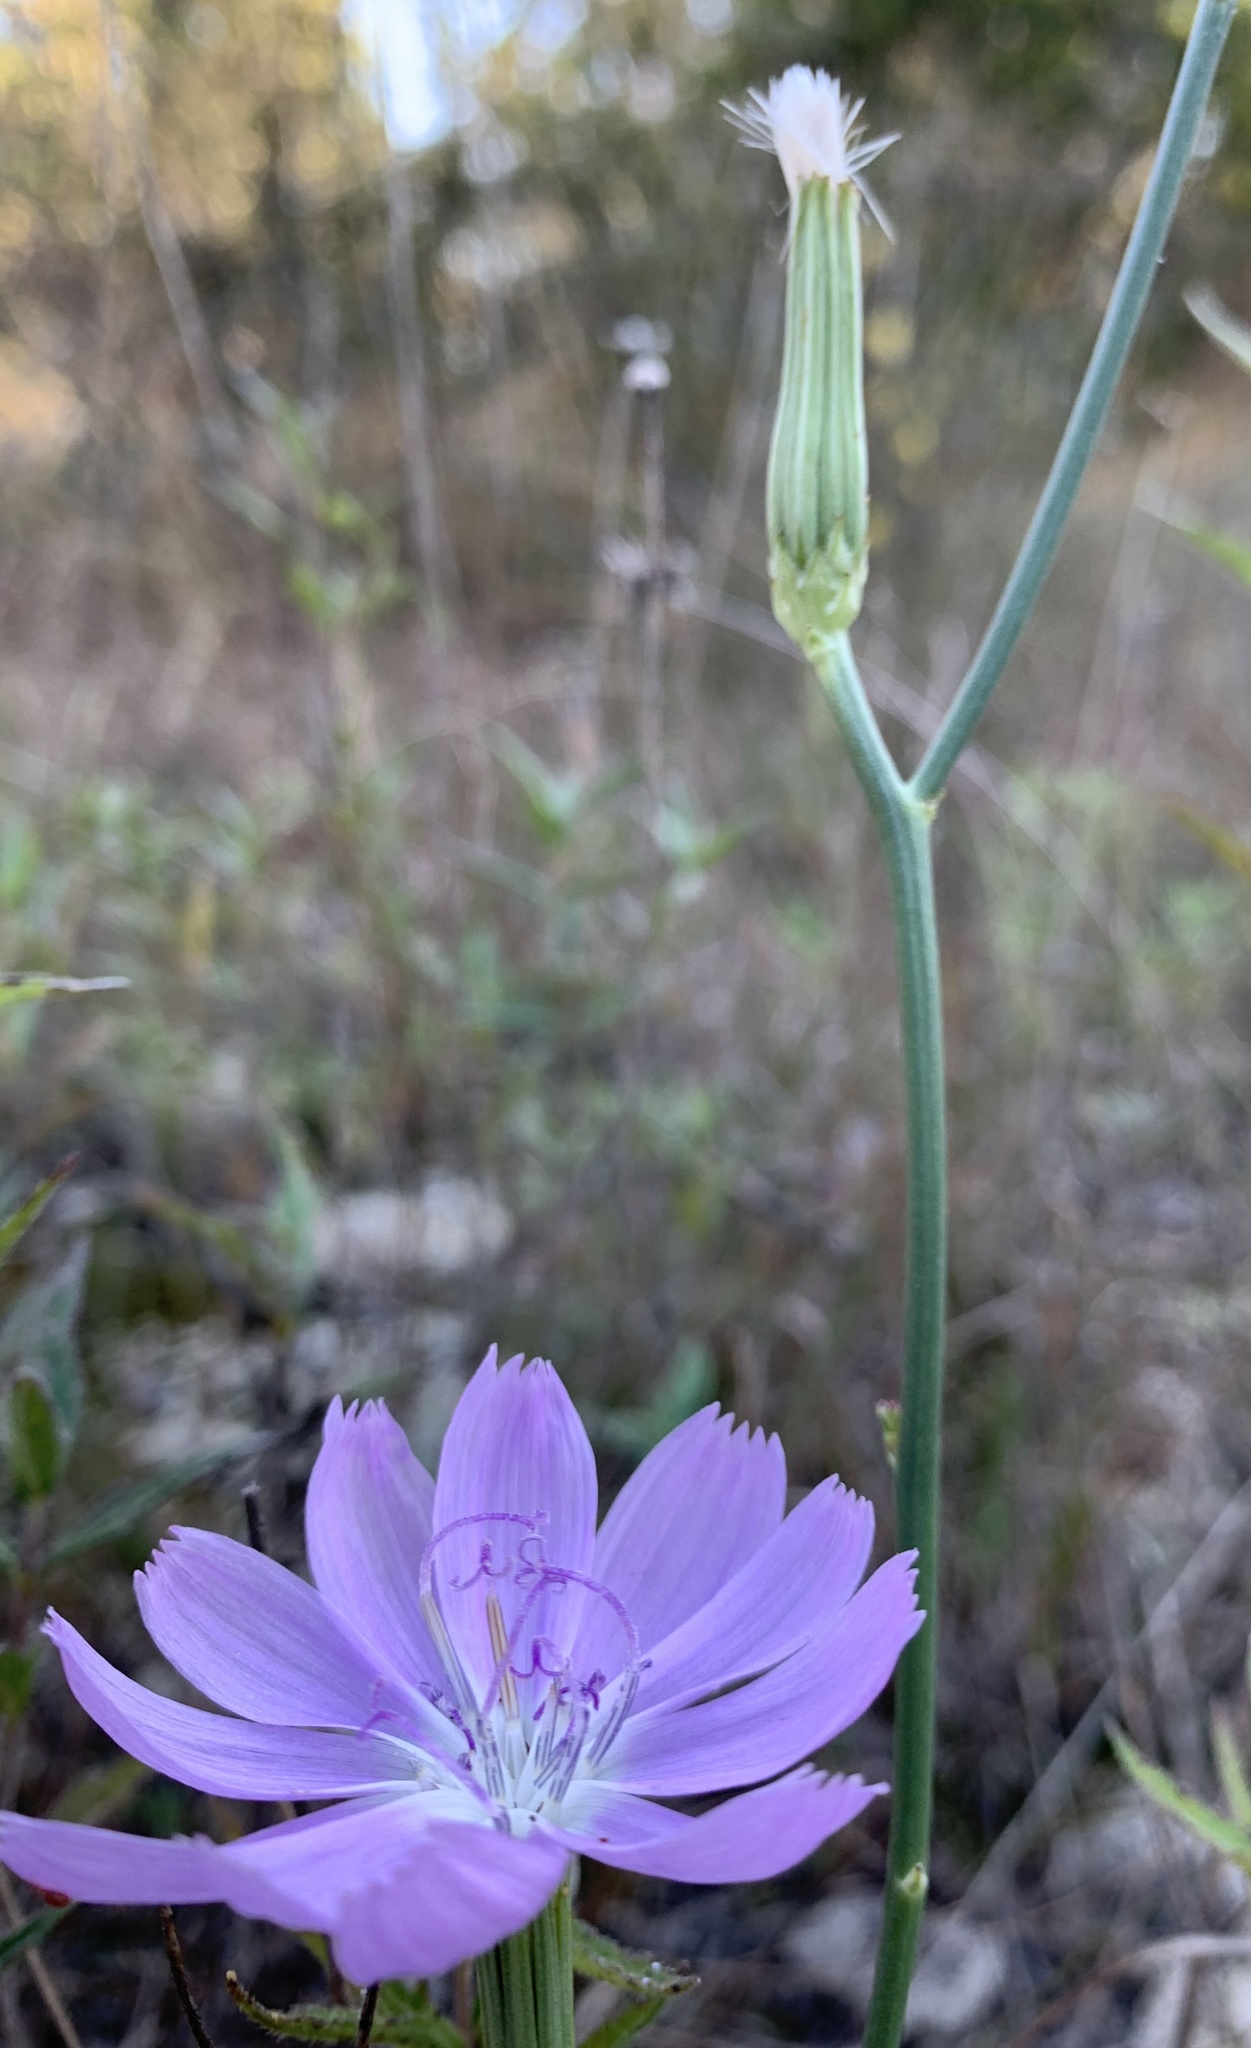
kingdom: Plantae
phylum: Tracheophyta
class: Magnoliopsida
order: Asterales
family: Asteraceae
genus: Lygodesmia
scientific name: Lygodesmia texana
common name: Texas skeleton-plant
